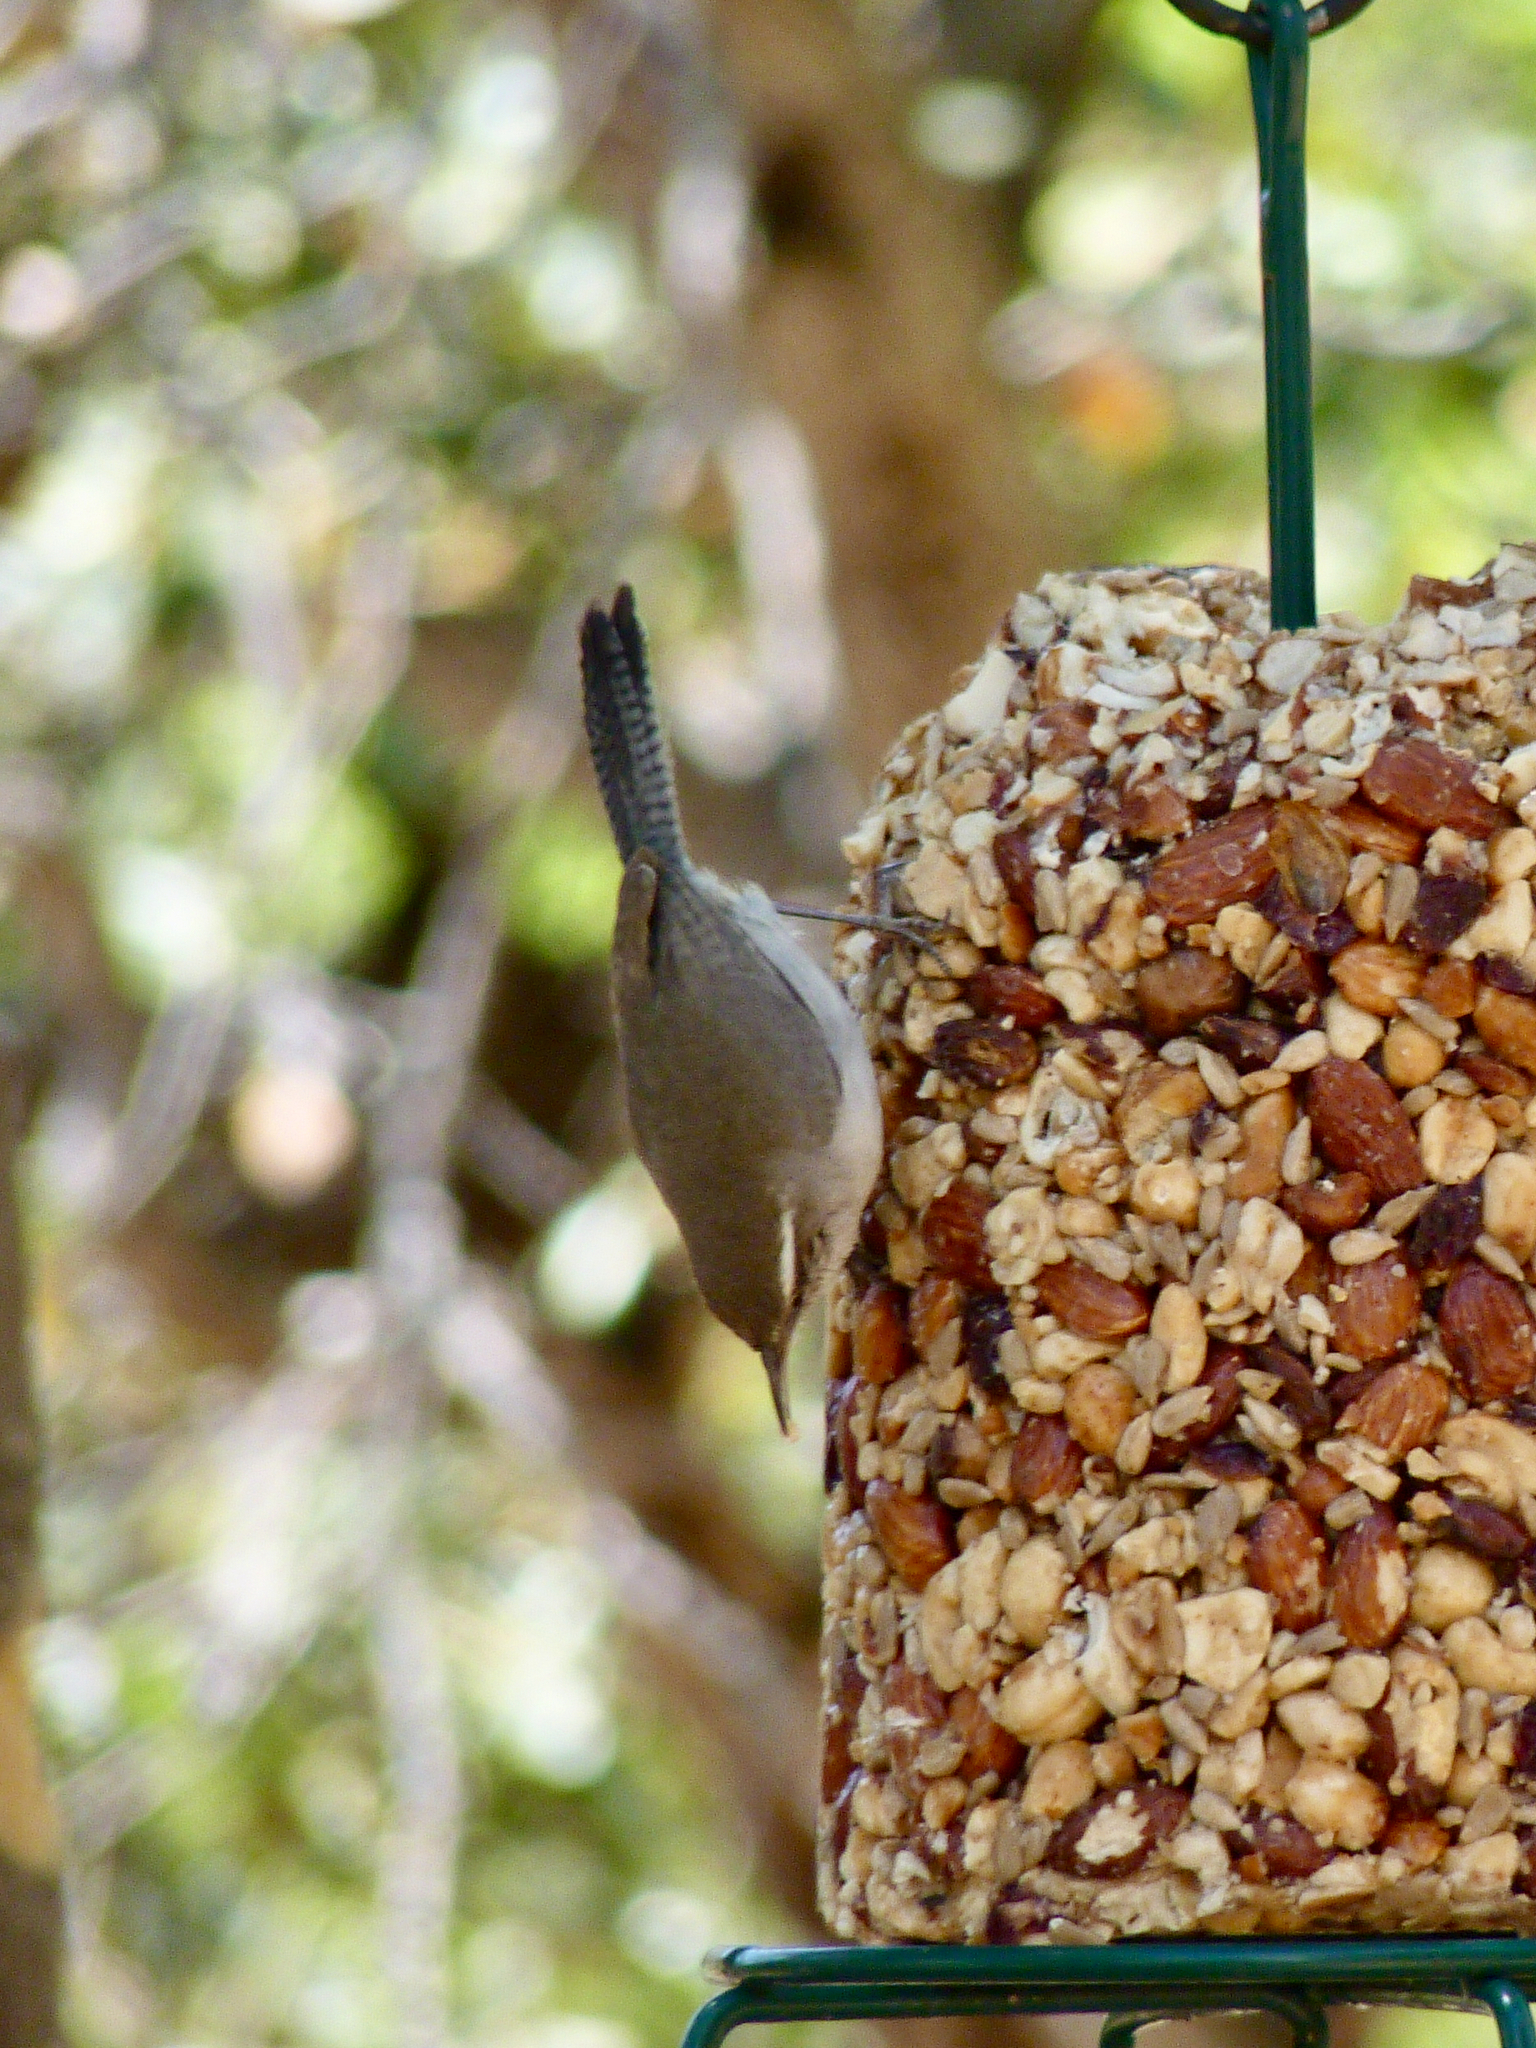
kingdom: Animalia
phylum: Chordata
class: Aves
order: Passeriformes
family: Troglodytidae
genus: Thryomanes
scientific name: Thryomanes bewickii
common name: Bewick's wren
